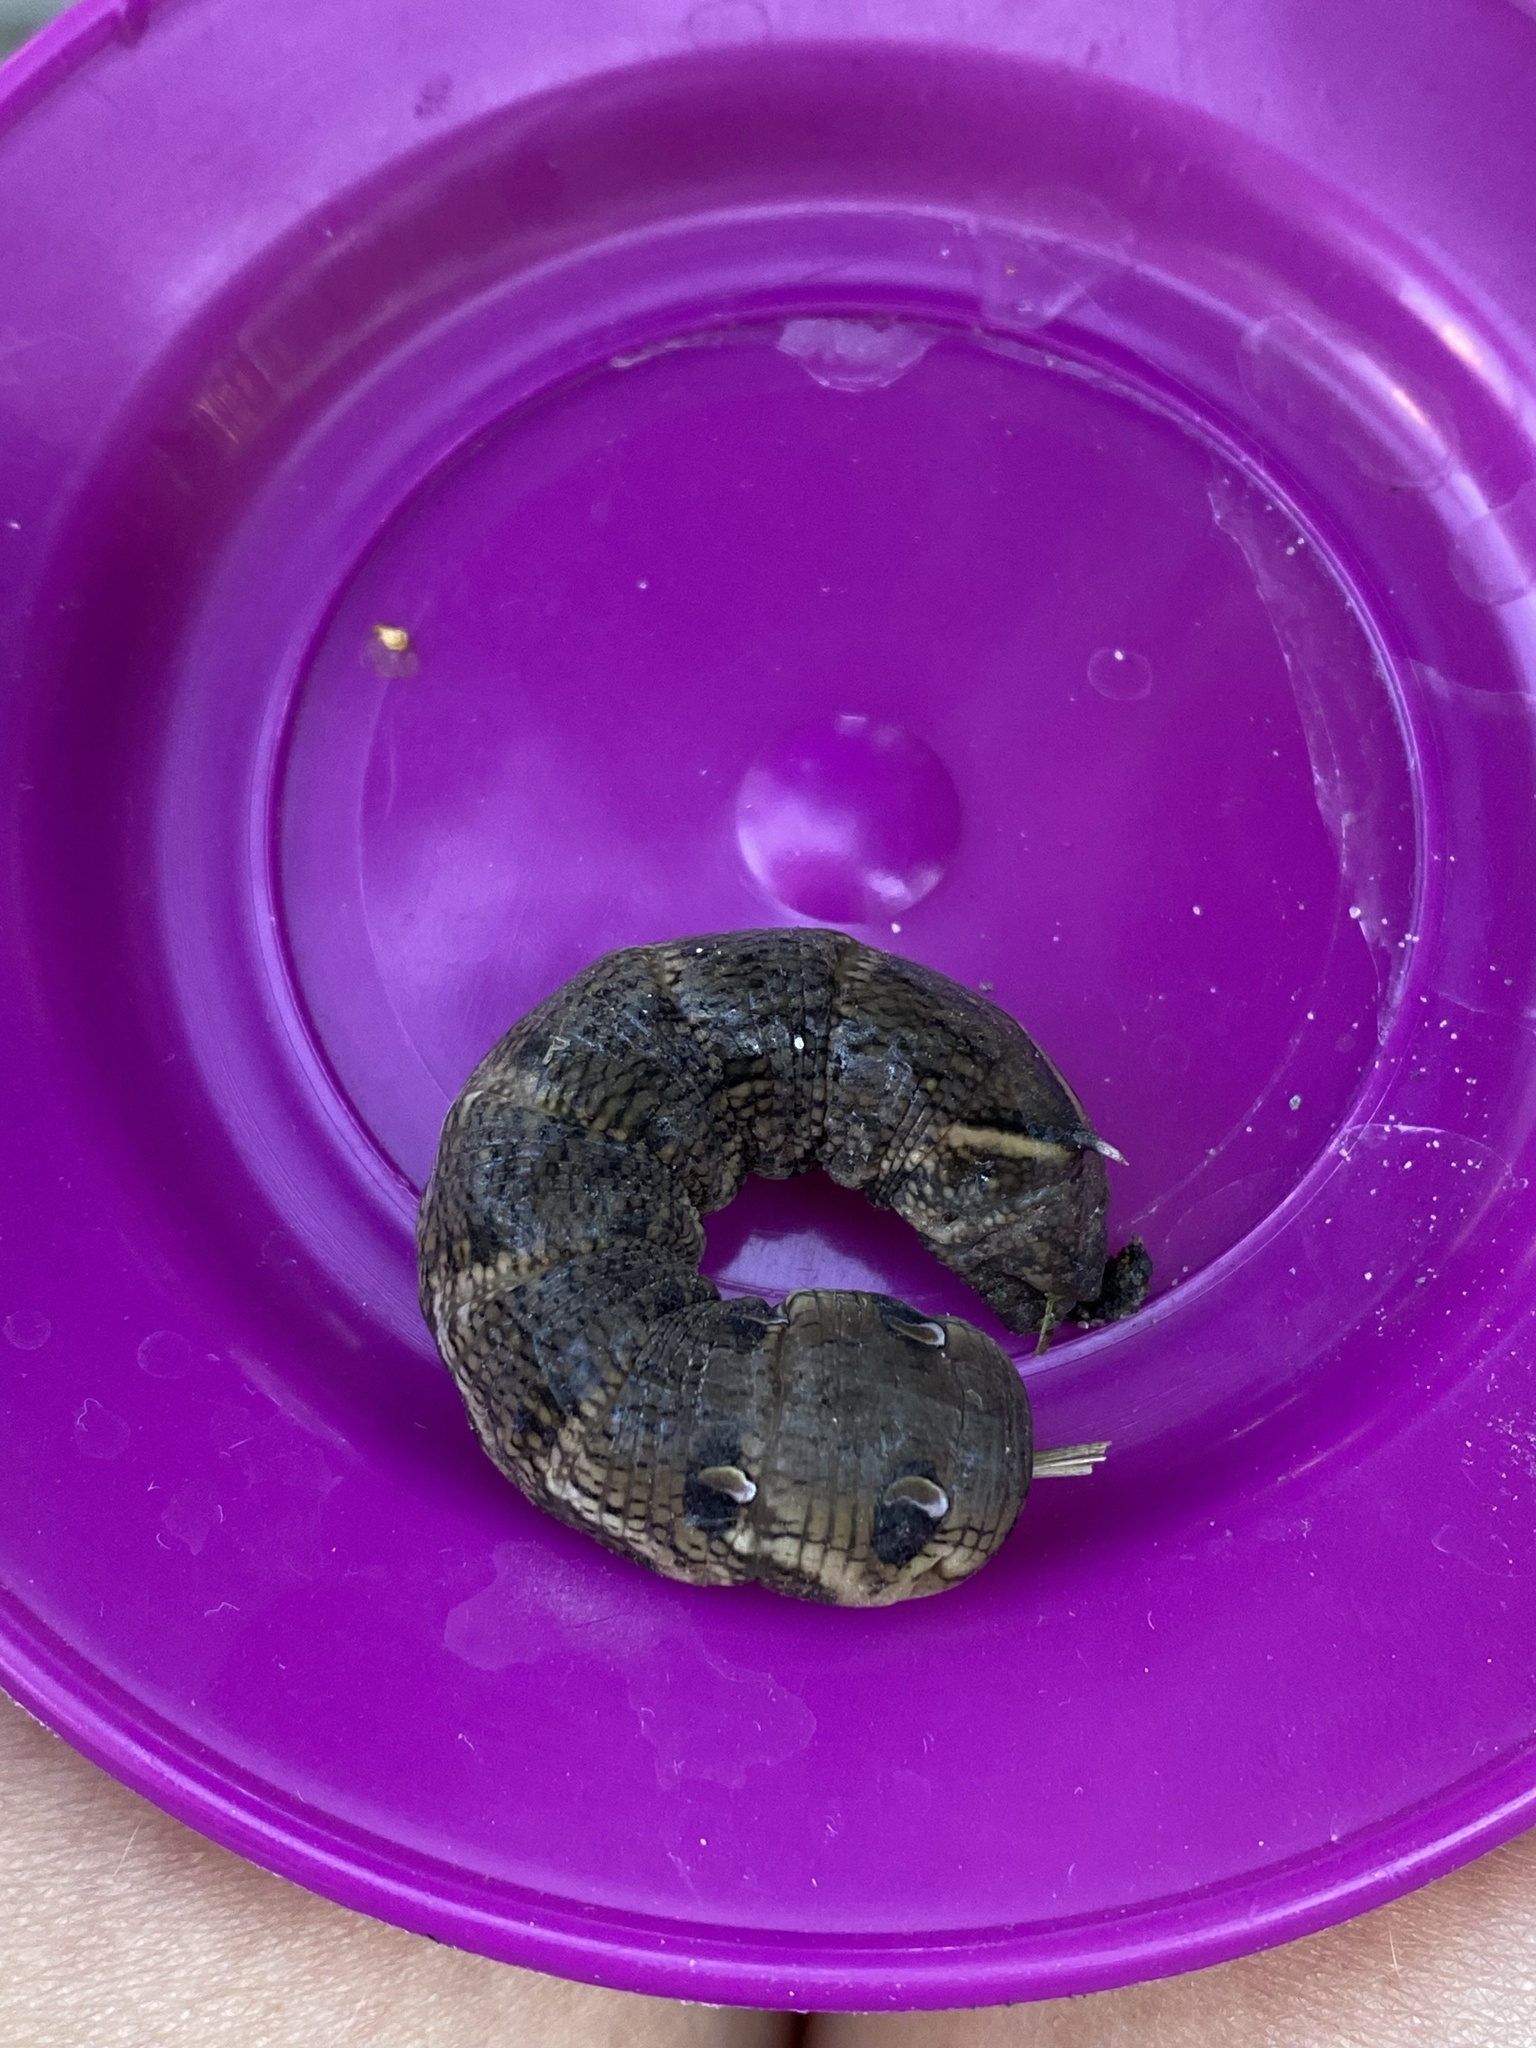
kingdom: Animalia
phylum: Arthropoda
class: Insecta
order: Lepidoptera
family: Sphingidae
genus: Deilephila
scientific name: Deilephila elpenor
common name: Elephant hawk-moth
